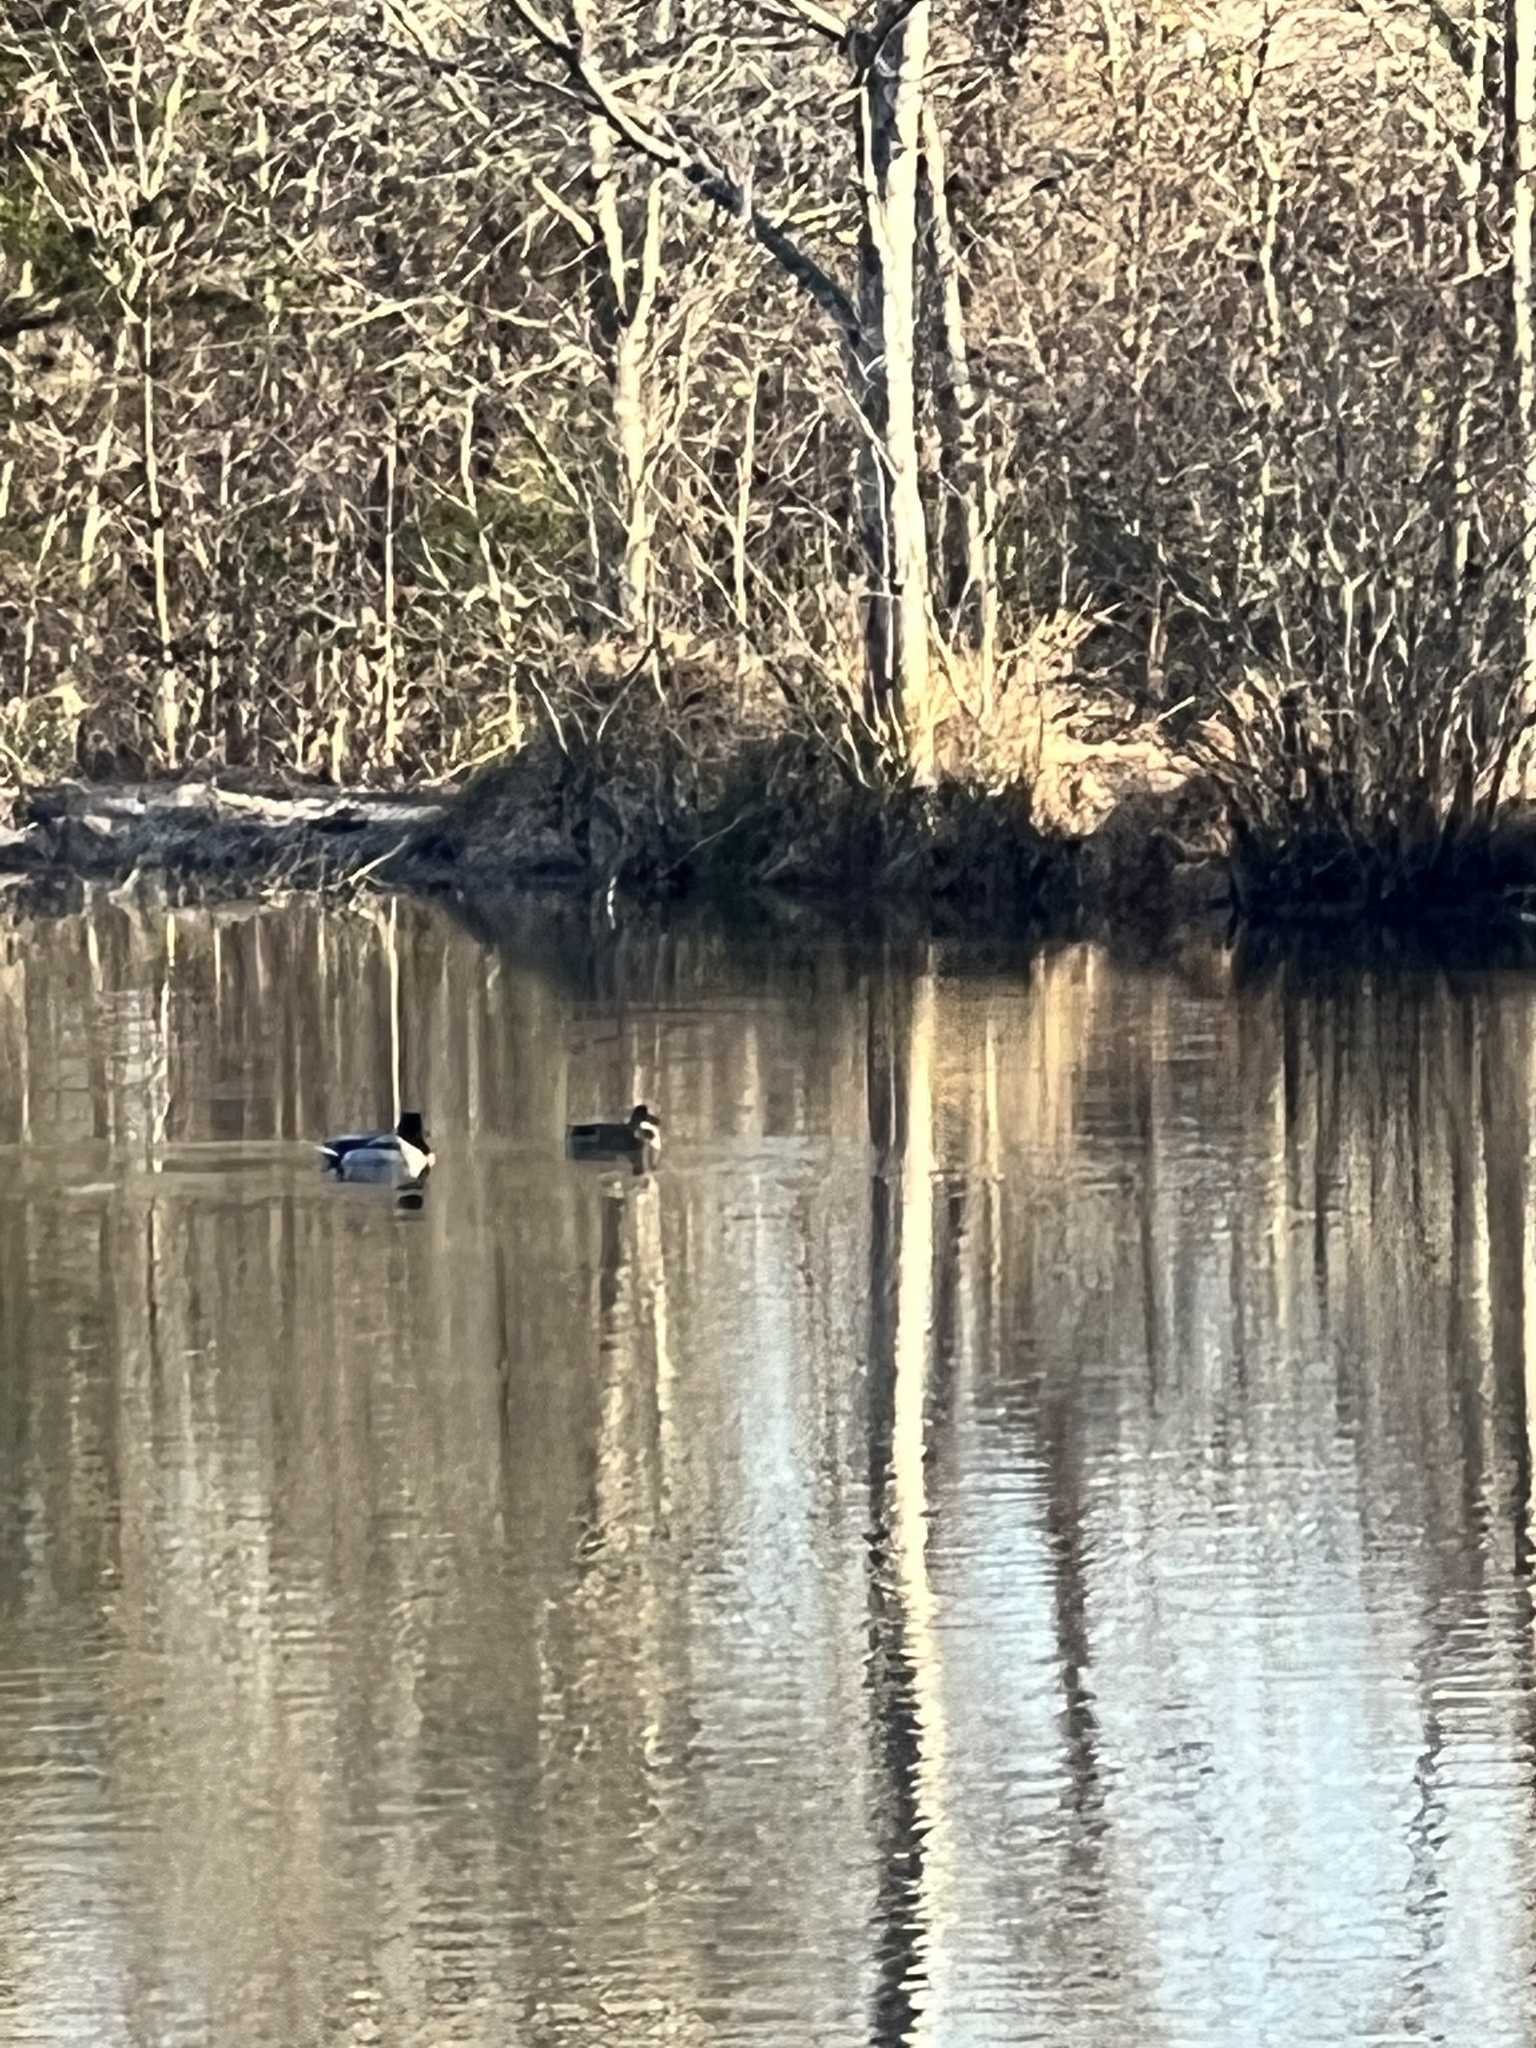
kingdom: Animalia
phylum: Chordata
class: Aves
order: Anseriformes
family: Anatidae
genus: Anas
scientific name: Anas platyrhynchos
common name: Mallard
